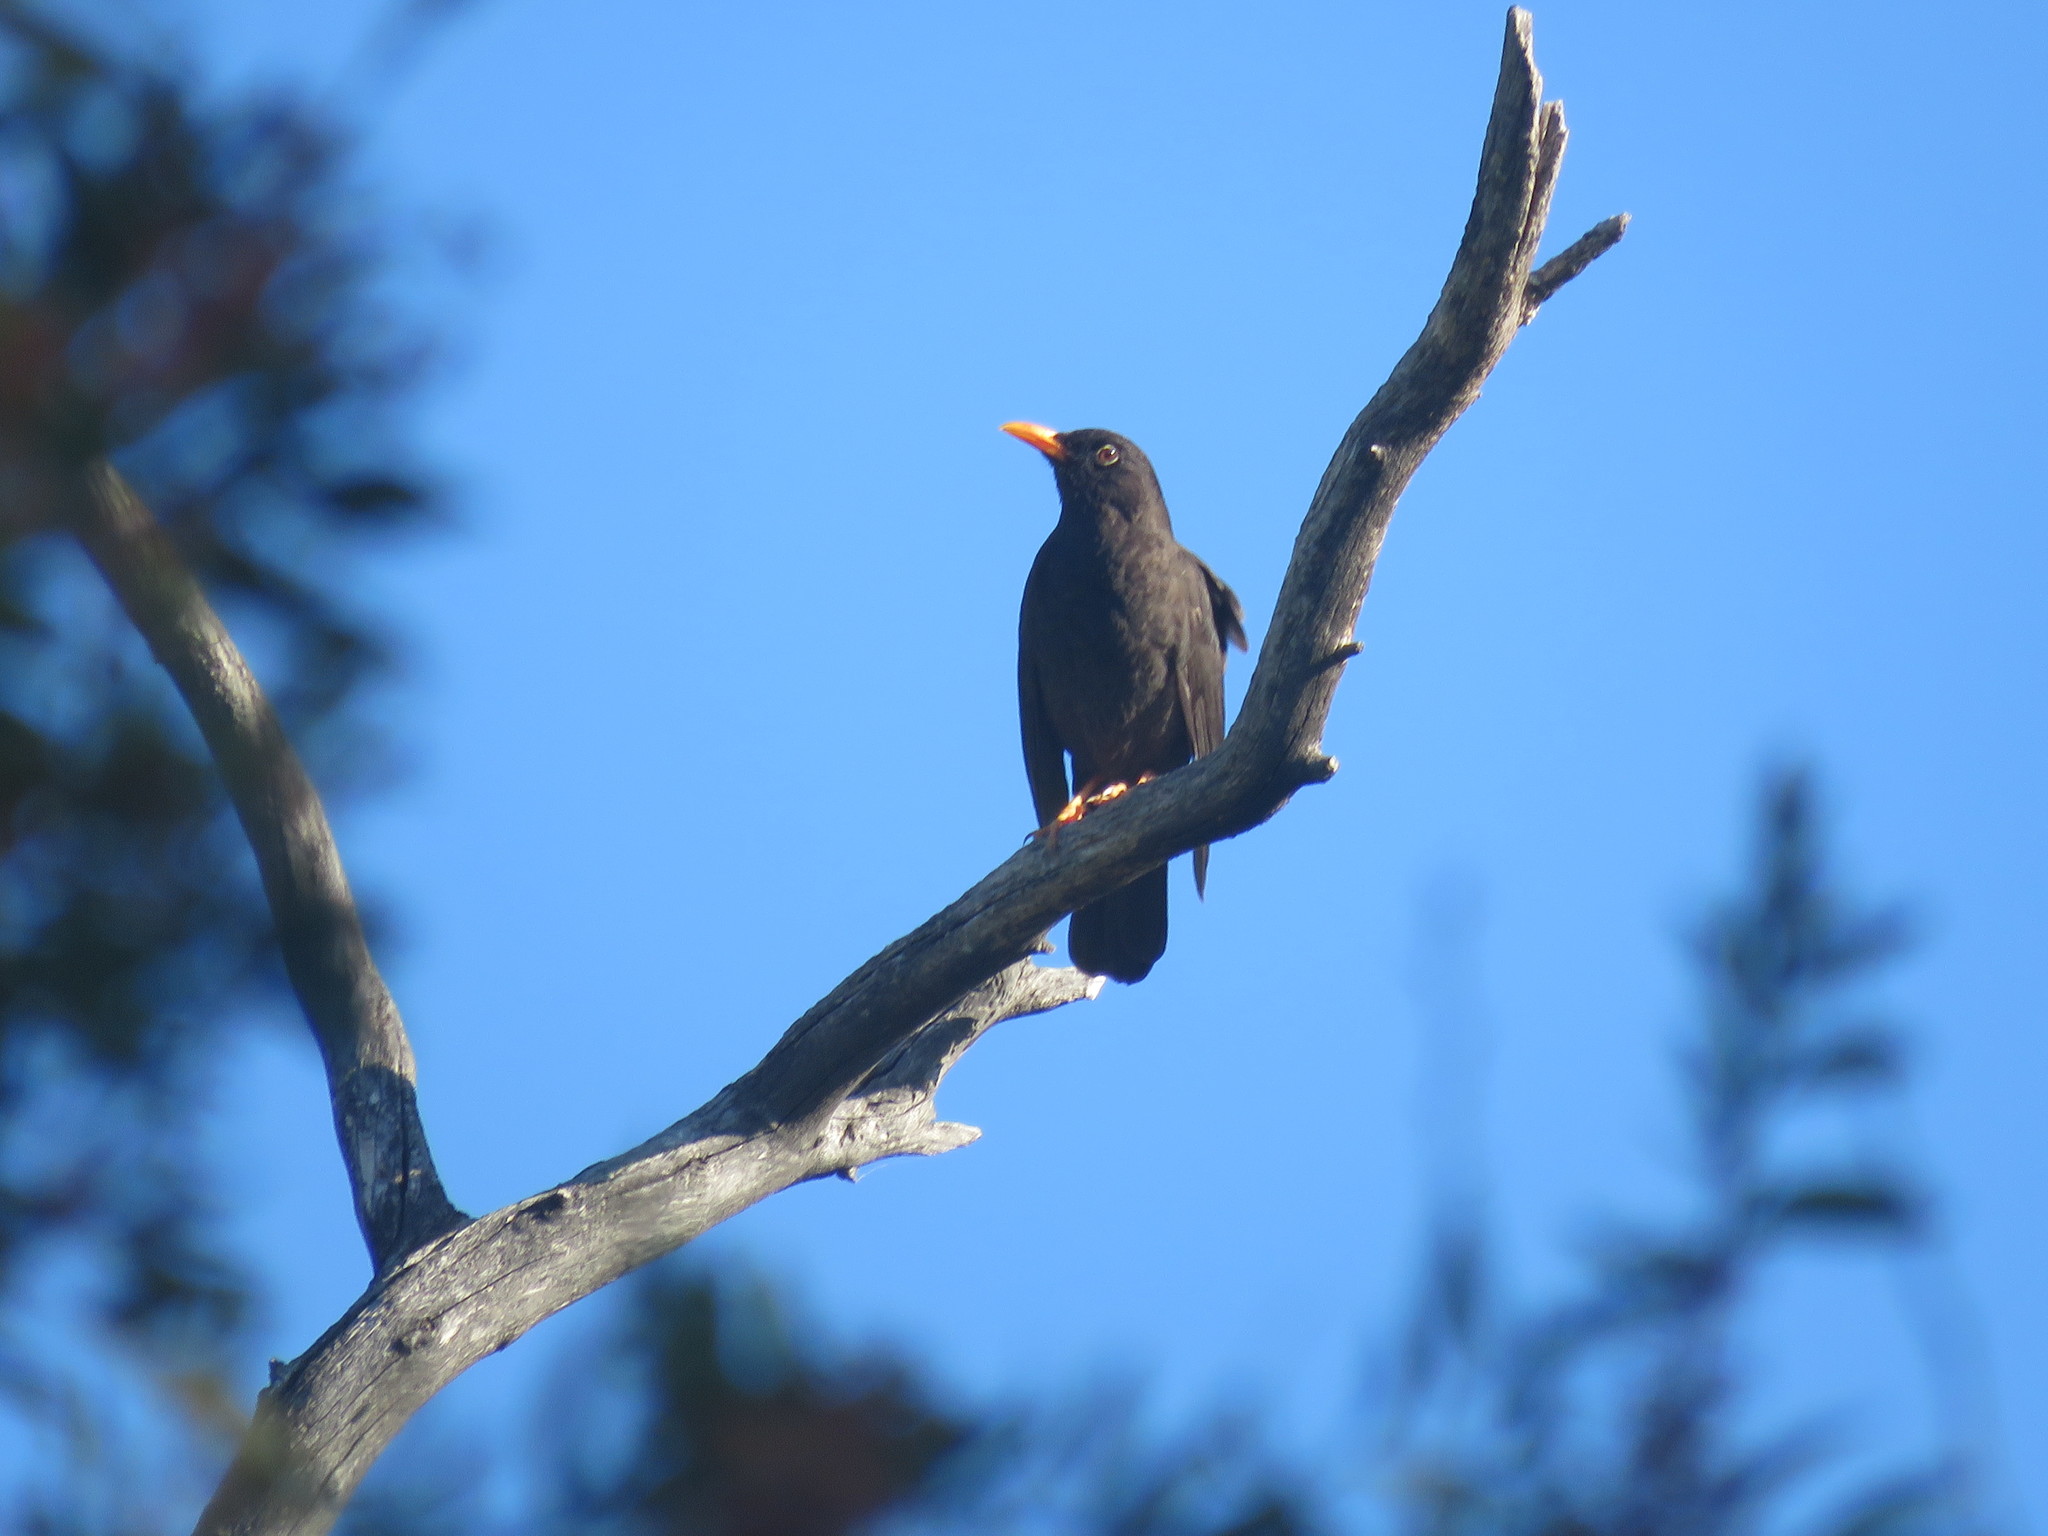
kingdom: Animalia
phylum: Chordata
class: Aves
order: Passeriformes
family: Turdidae
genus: Turdus
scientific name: Turdus chiguanco
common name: Chiguanco thrush
